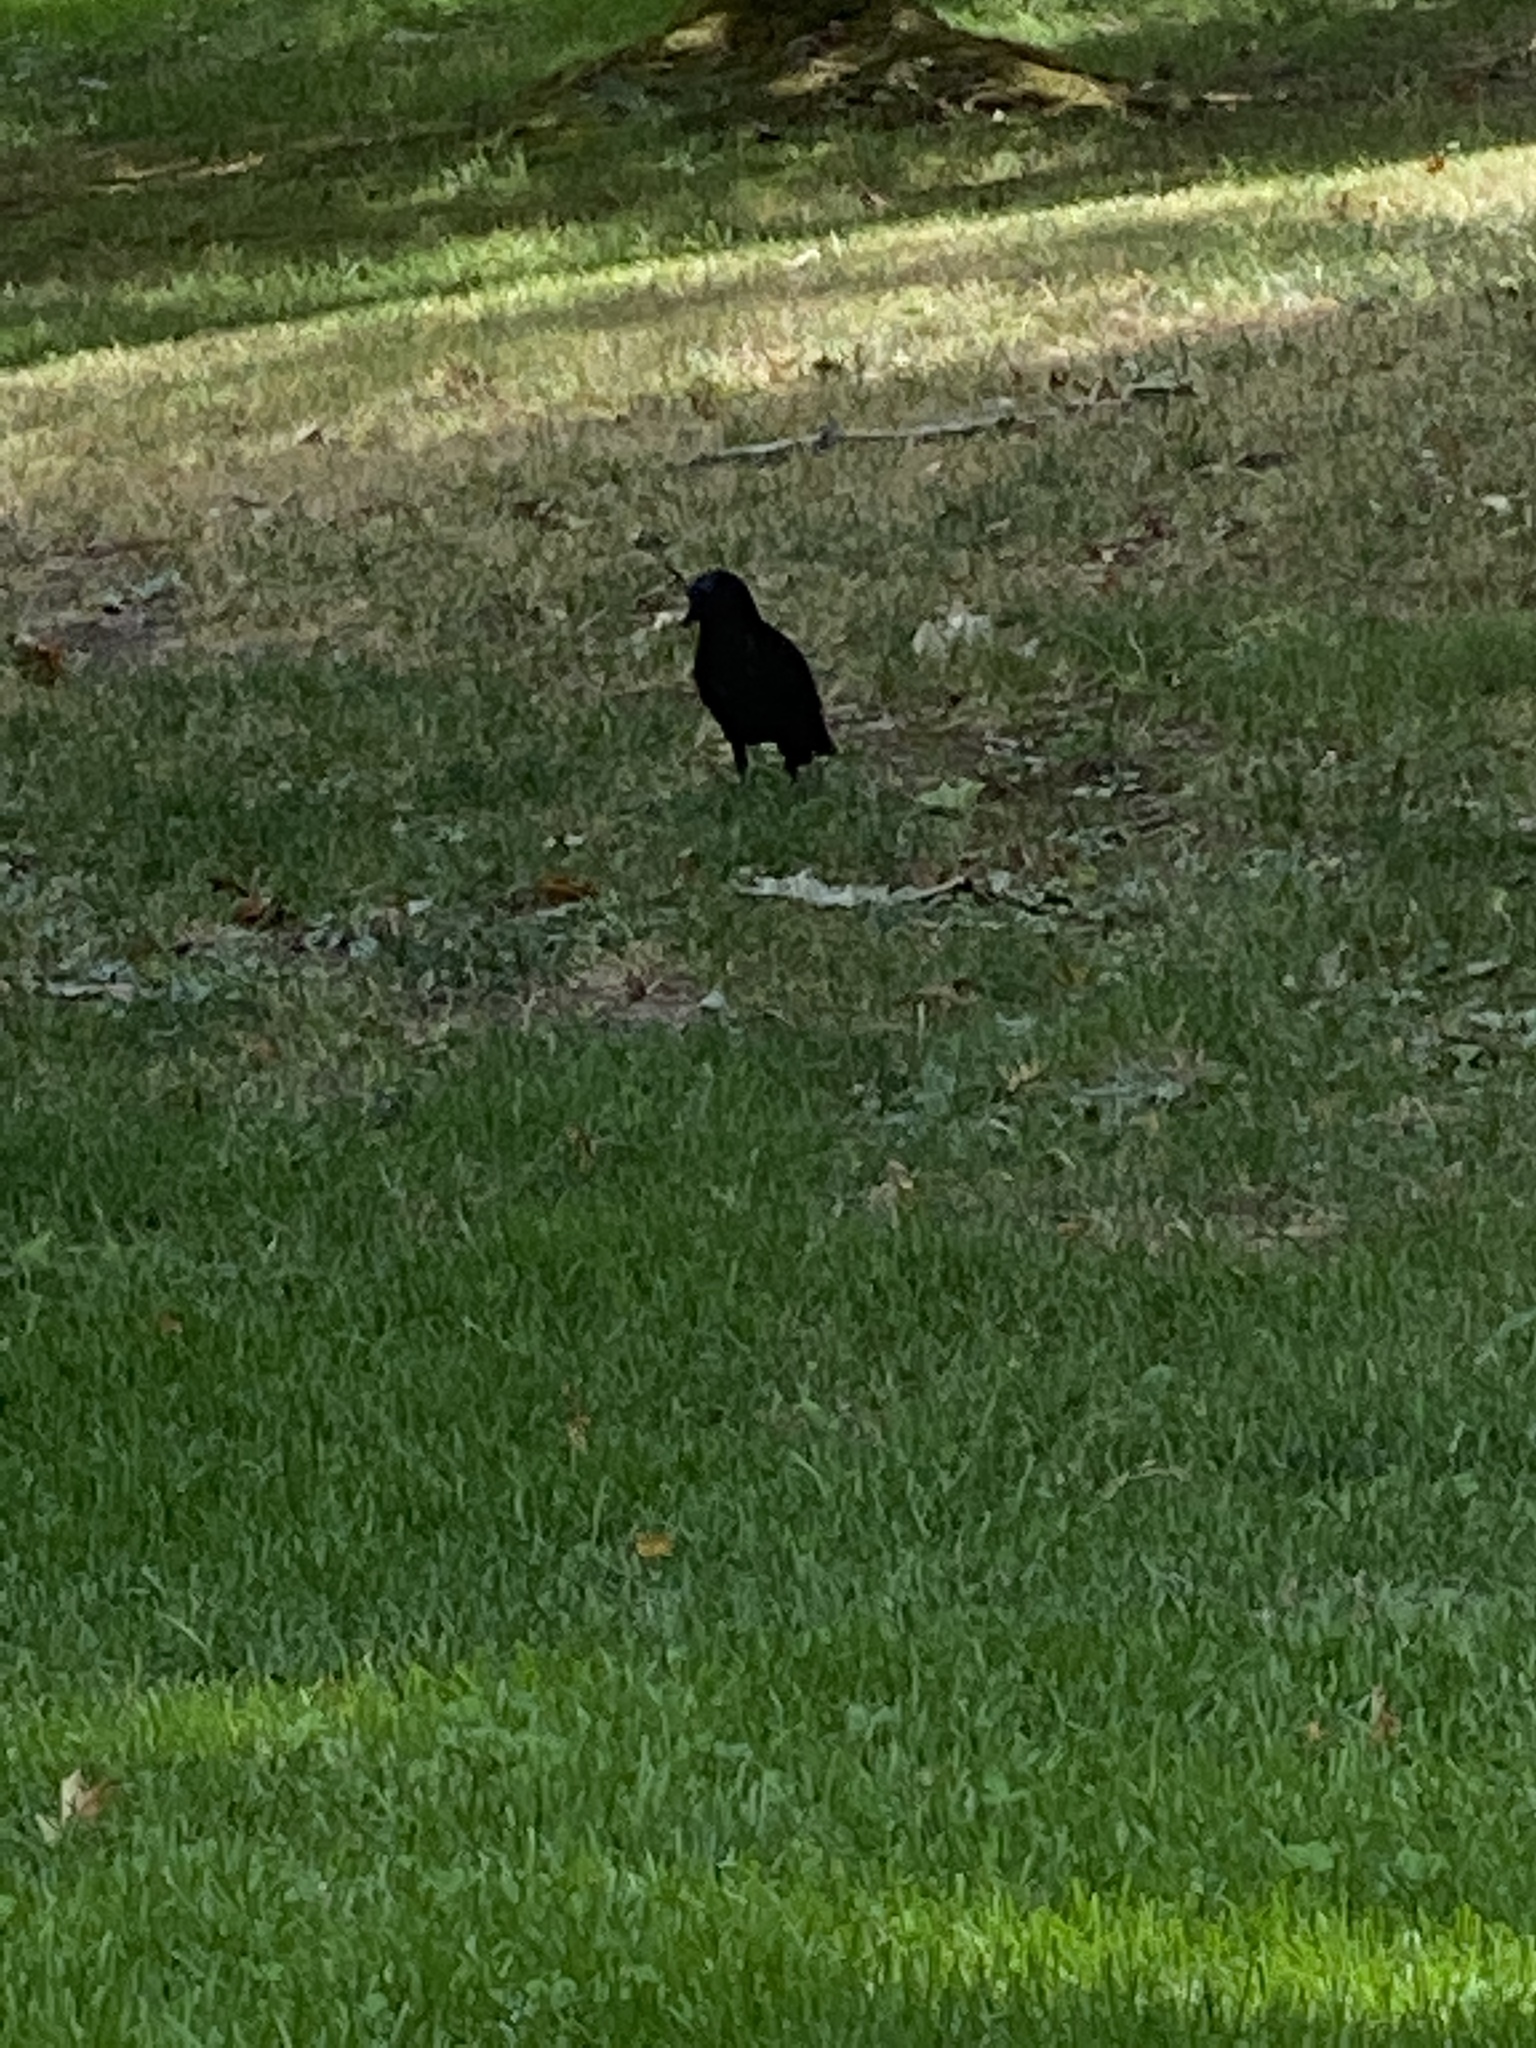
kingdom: Animalia
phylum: Chordata
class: Aves
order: Passeriformes
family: Corvidae
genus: Corvus
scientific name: Corvus brachyrhynchos
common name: American crow
